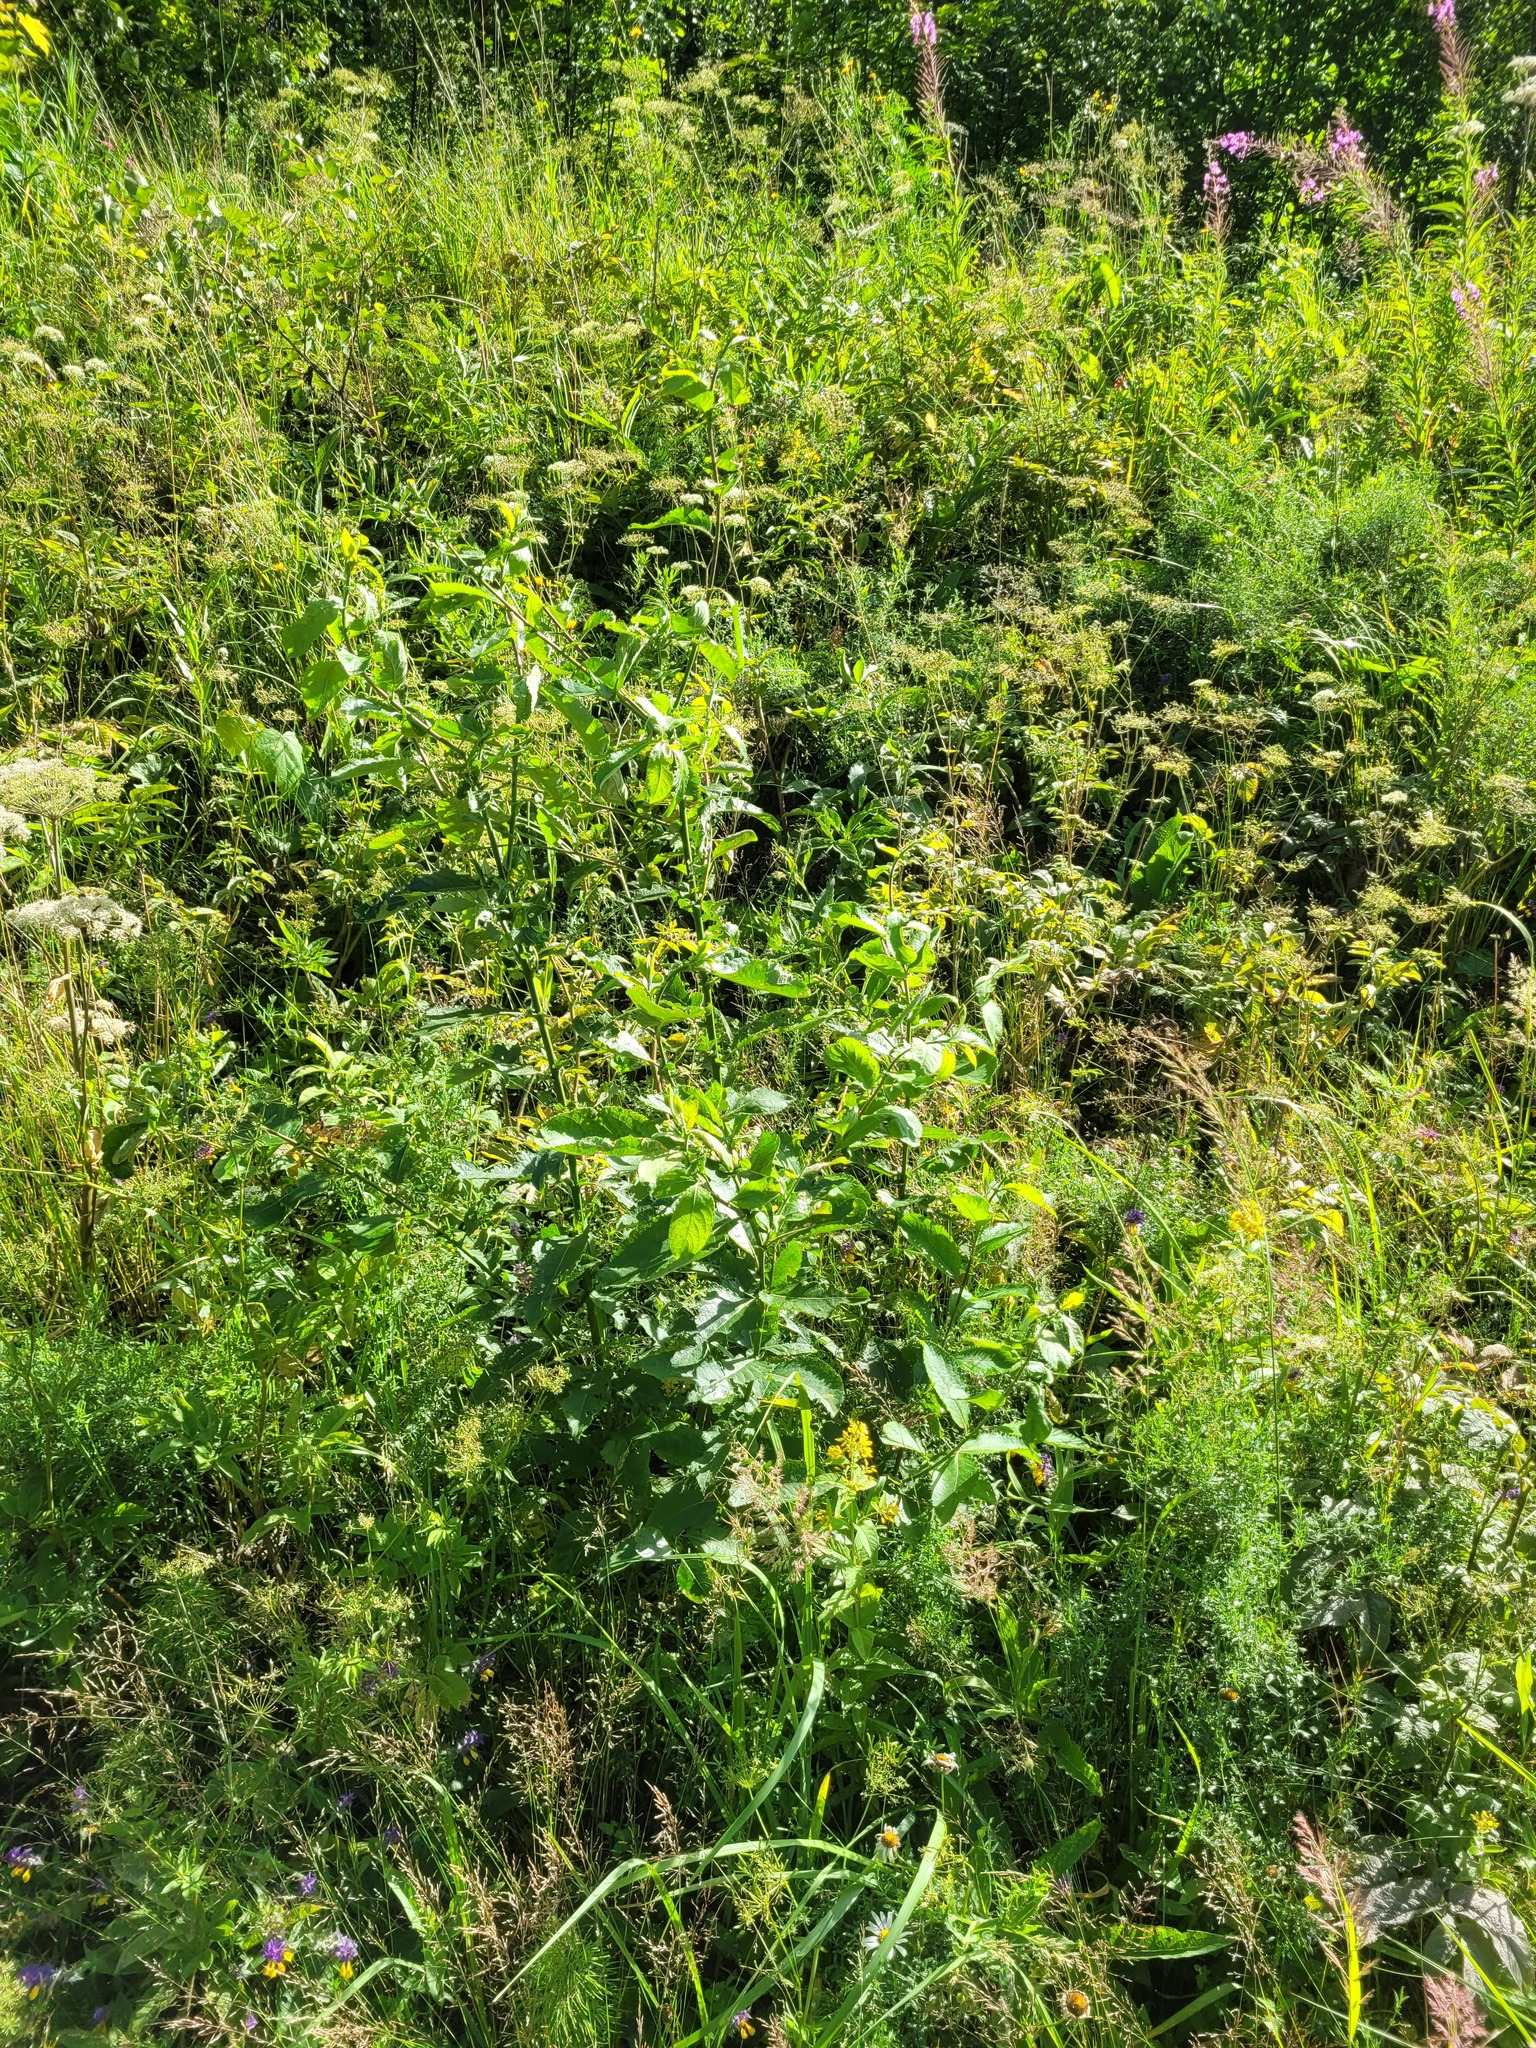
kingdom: Plantae
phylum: Tracheophyta
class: Magnoliopsida
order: Malpighiales
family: Salicaceae
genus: Salix
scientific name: Salix caprea
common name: Goat willow
